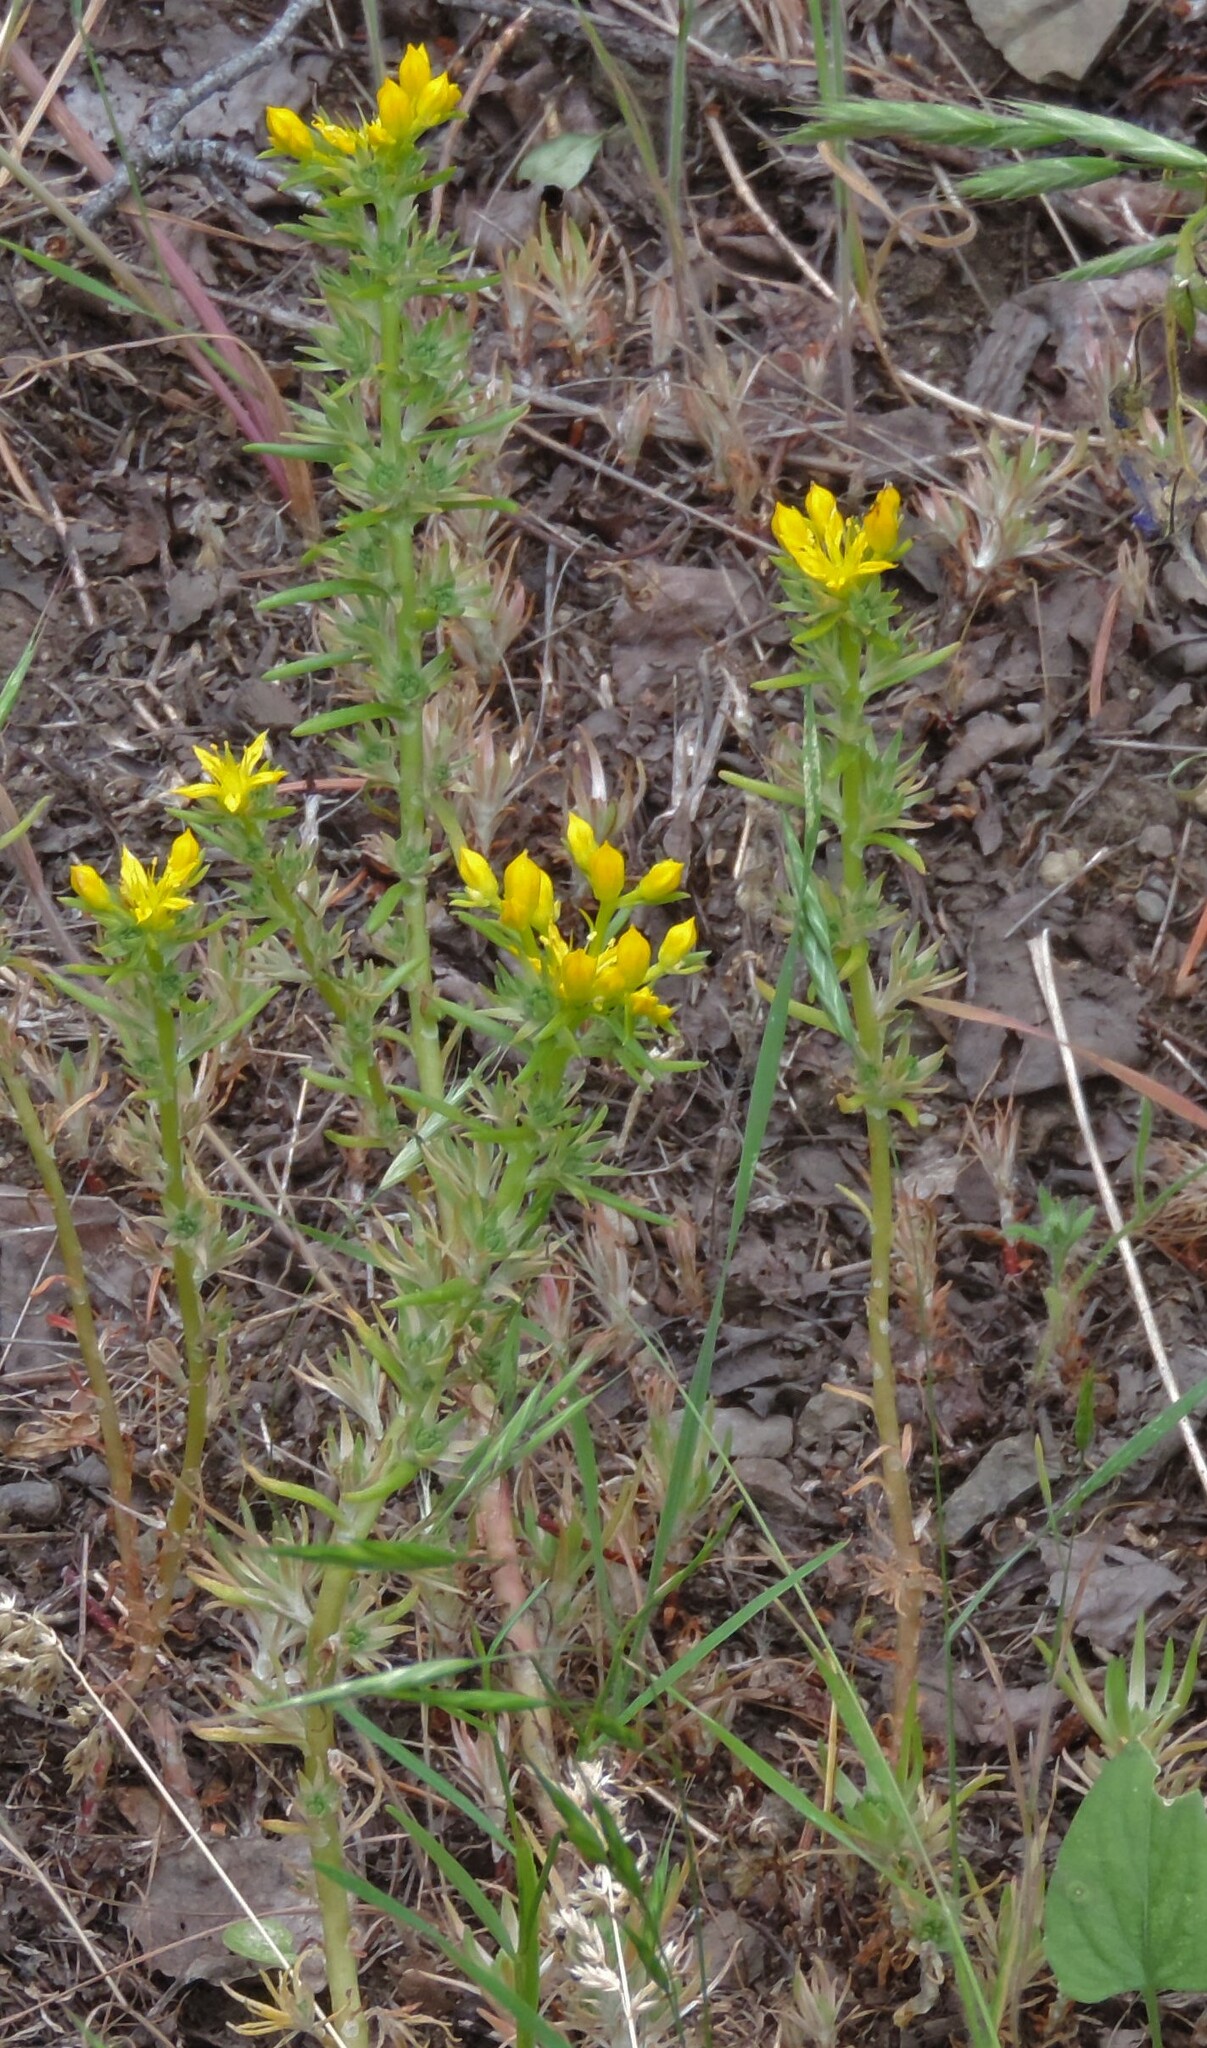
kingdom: Plantae
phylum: Tracheophyta
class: Magnoliopsida
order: Saxifragales
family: Crassulaceae
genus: Sedum
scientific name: Sedum stenopetalum
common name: Narrow-petaled stonecrop
